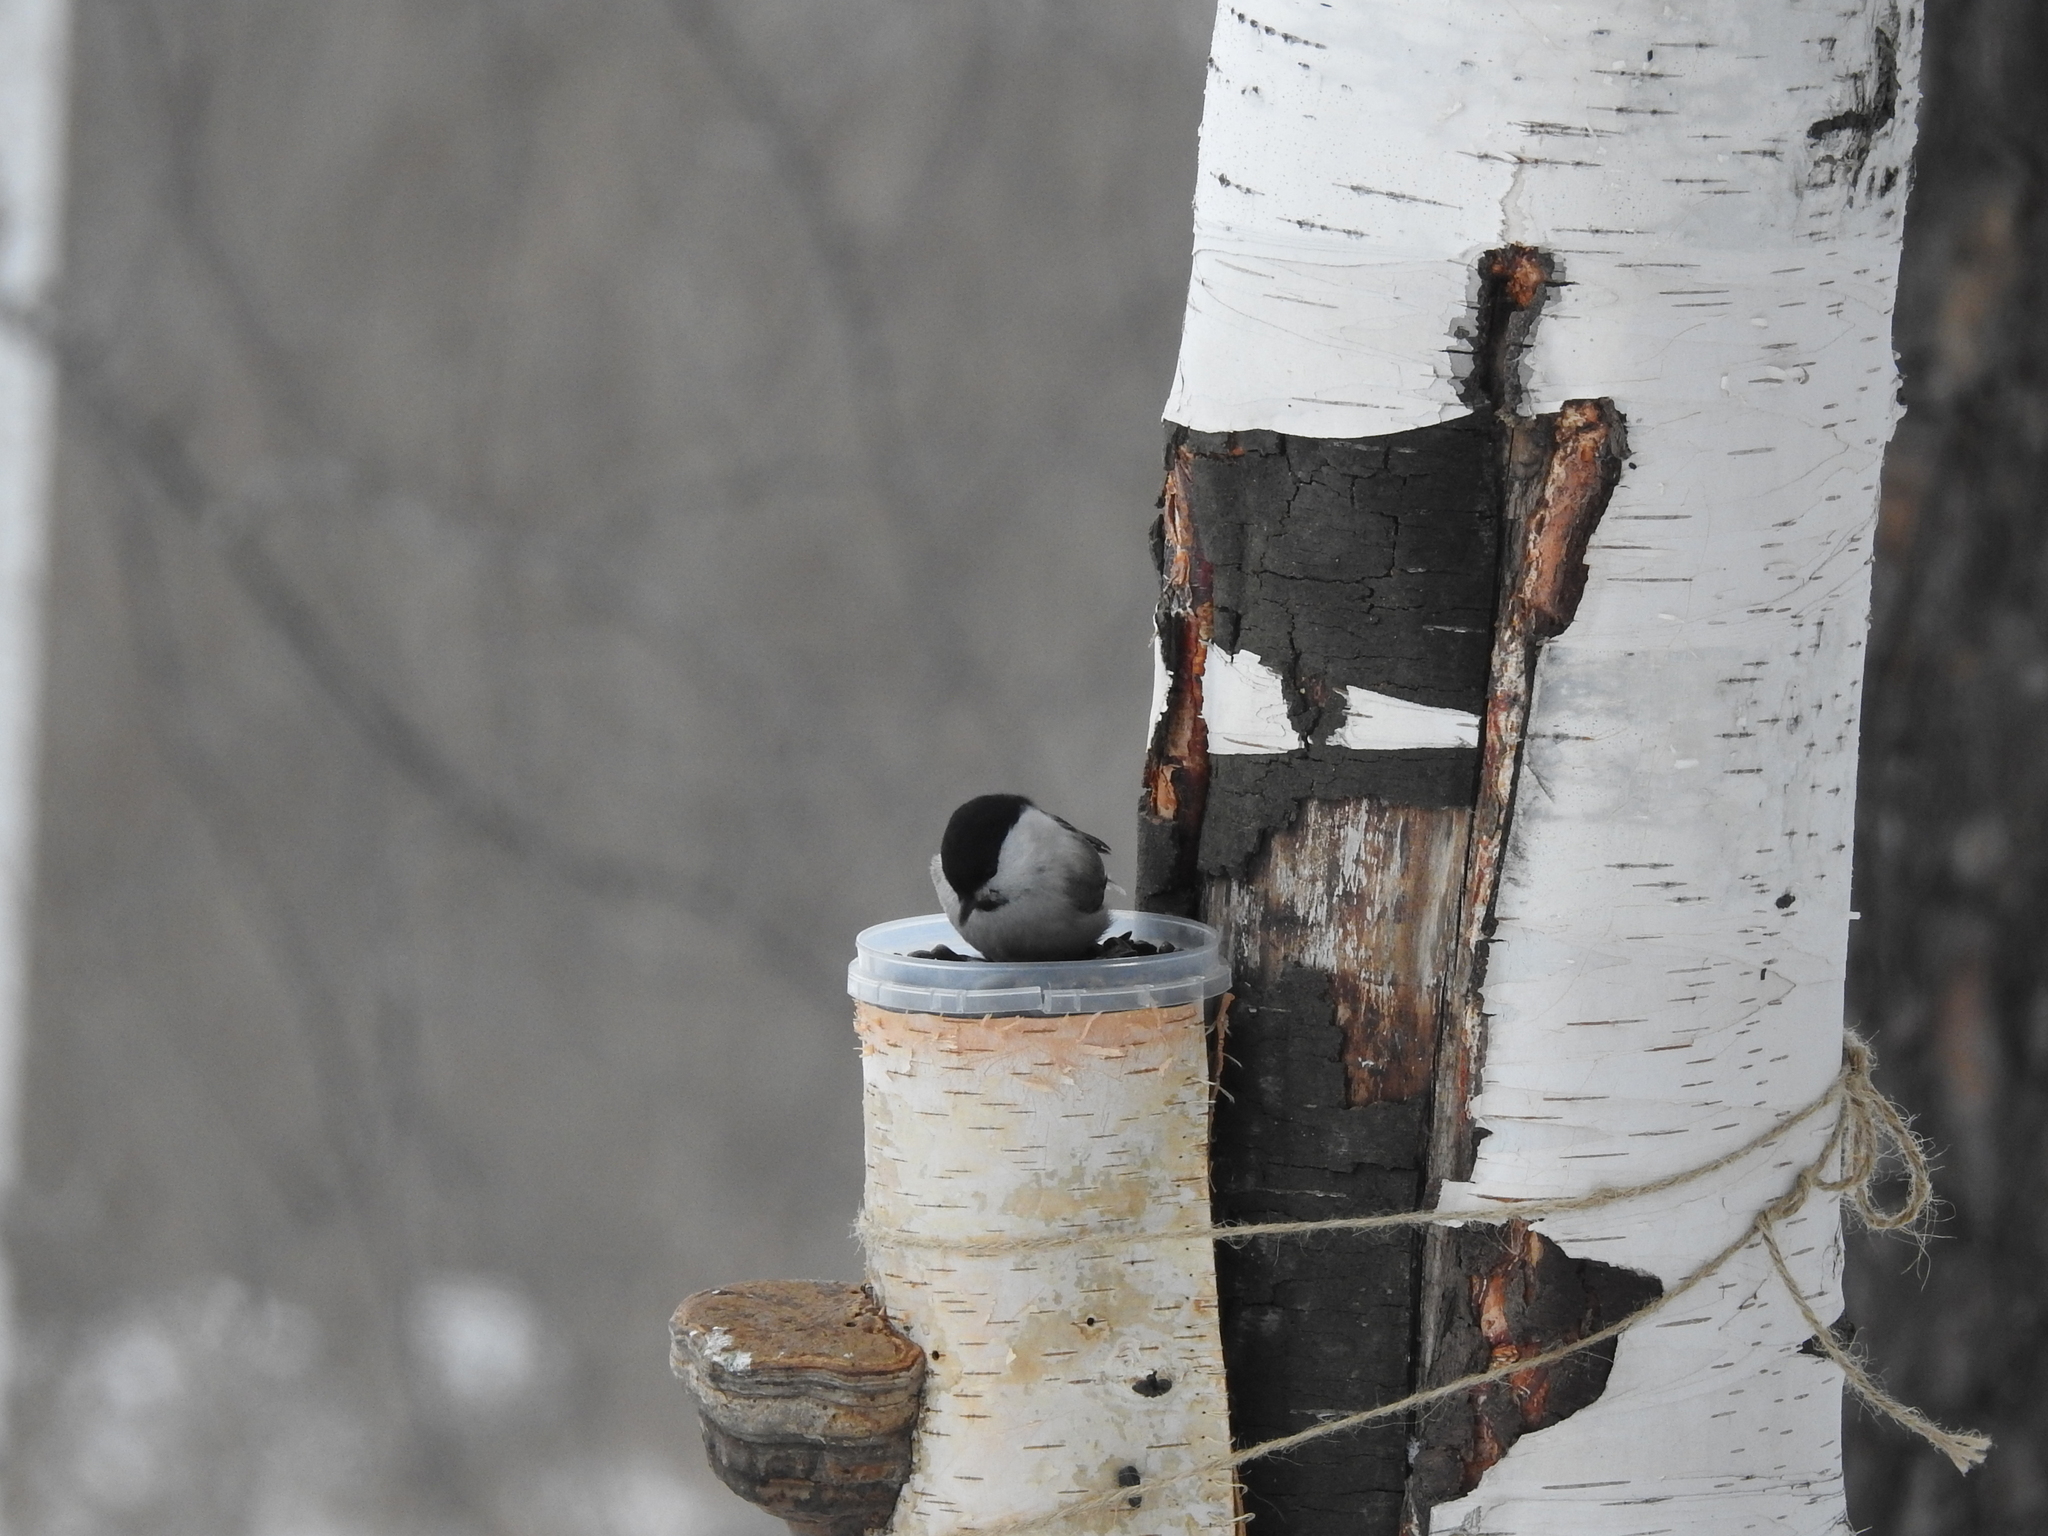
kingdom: Animalia
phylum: Chordata
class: Aves
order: Passeriformes
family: Paridae
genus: Poecile
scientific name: Poecile montanus
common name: Willow tit
